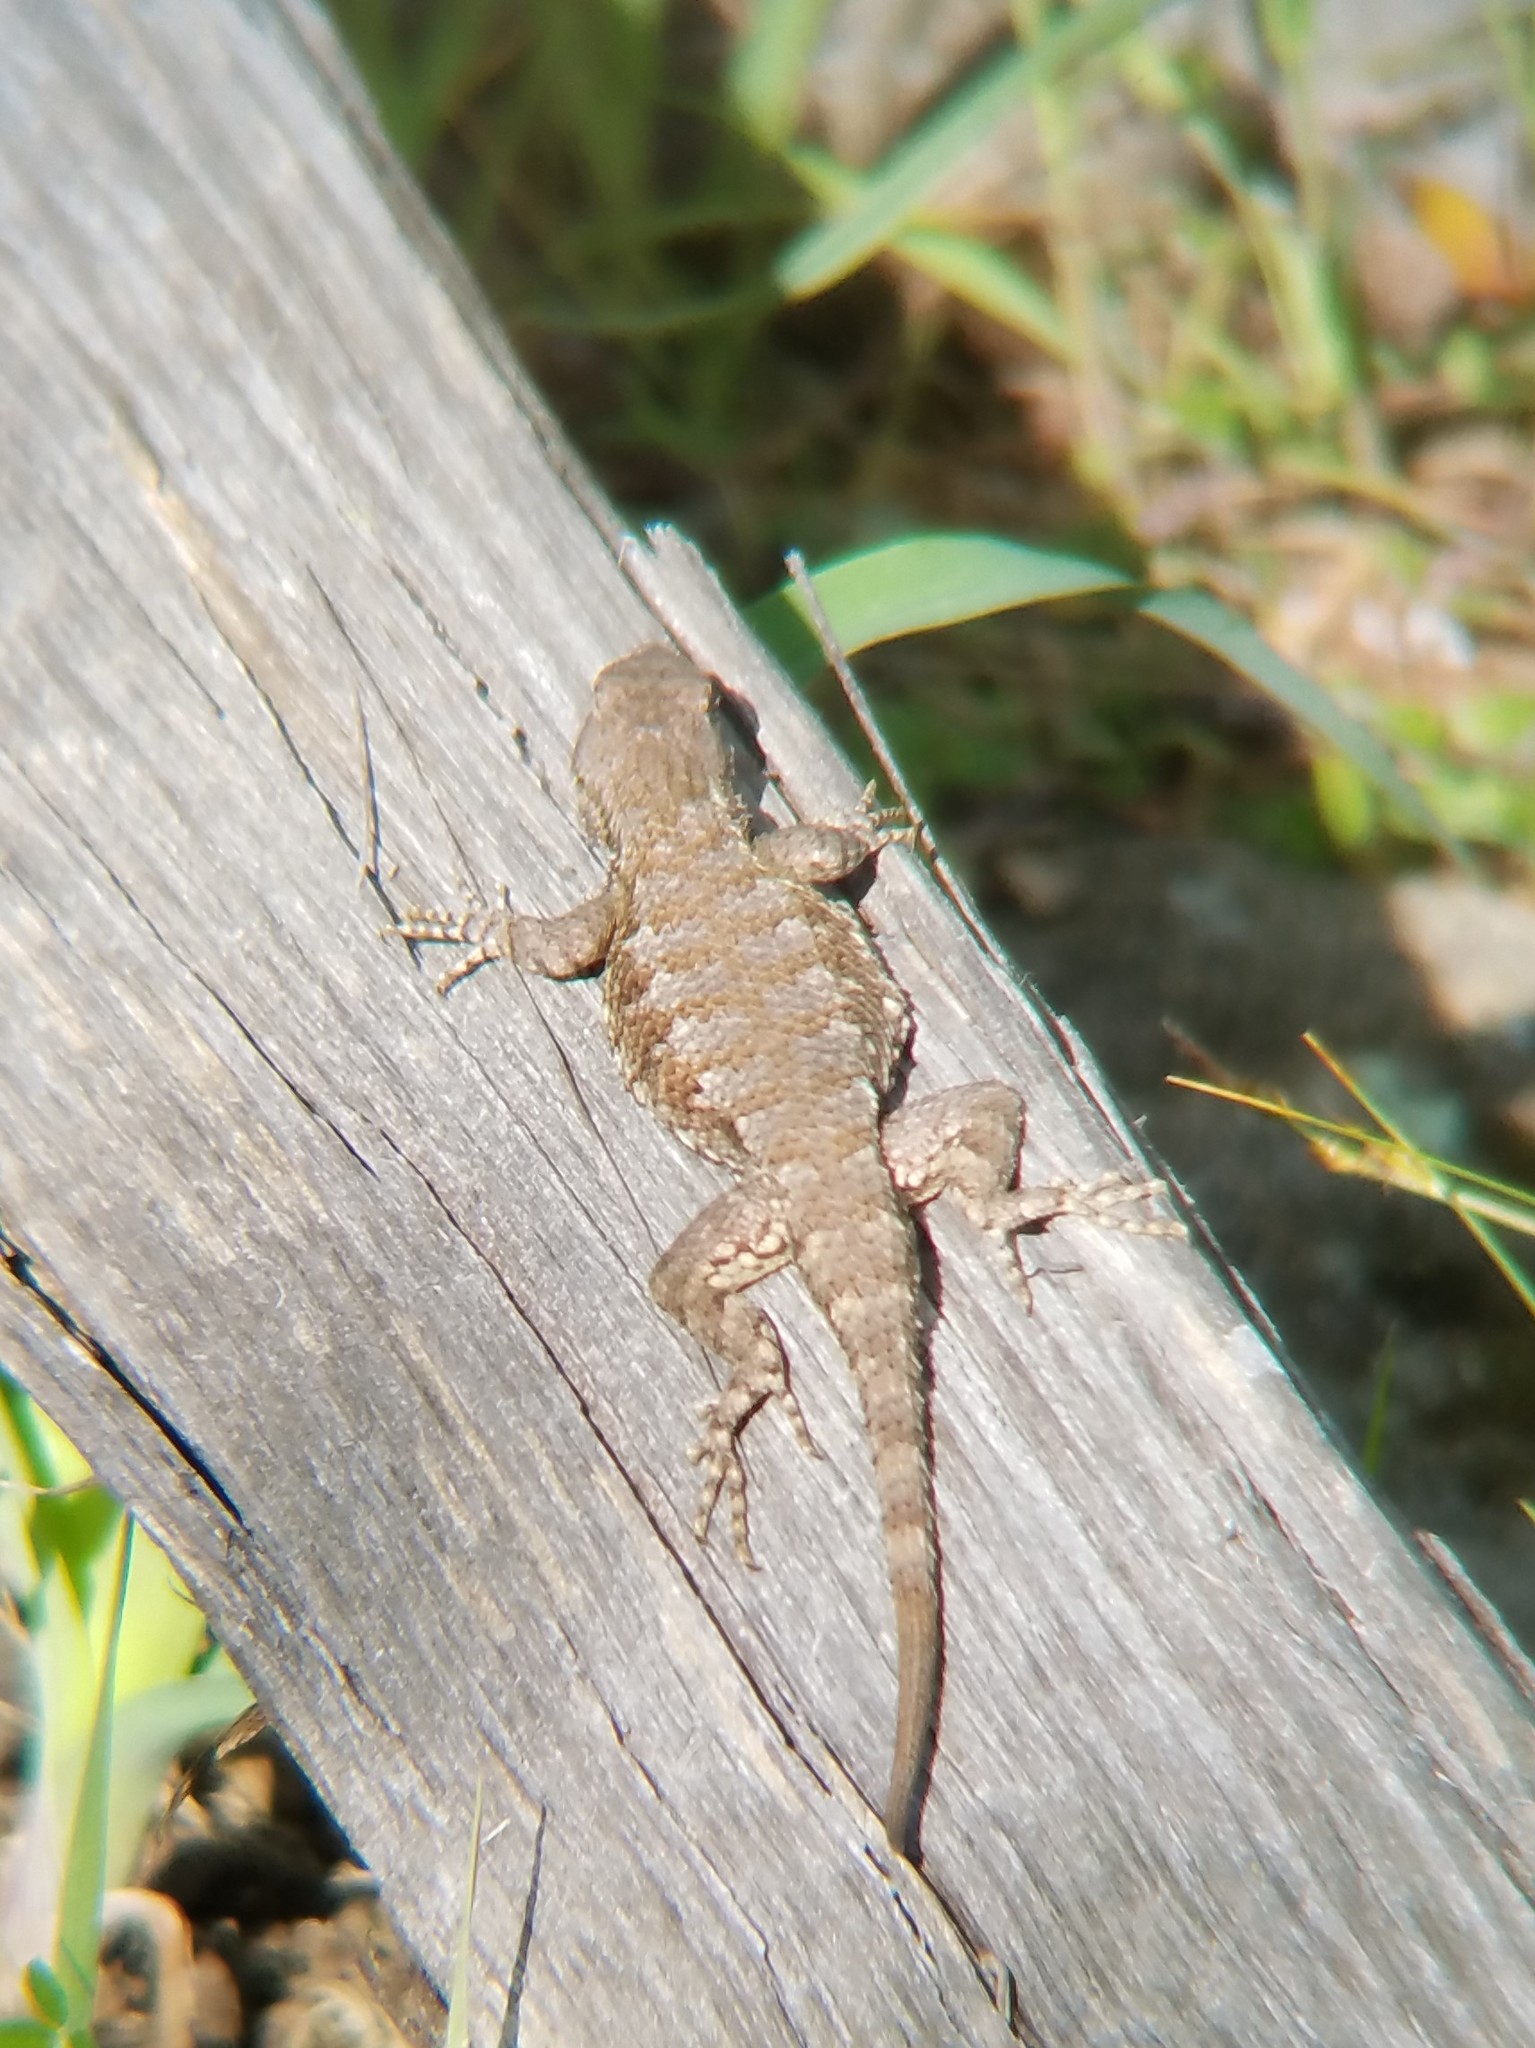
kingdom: Animalia
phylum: Chordata
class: Squamata
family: Phrynosomatidae
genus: Sceloporus
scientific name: Sceloporus undulatus
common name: Eastern fence lizard
